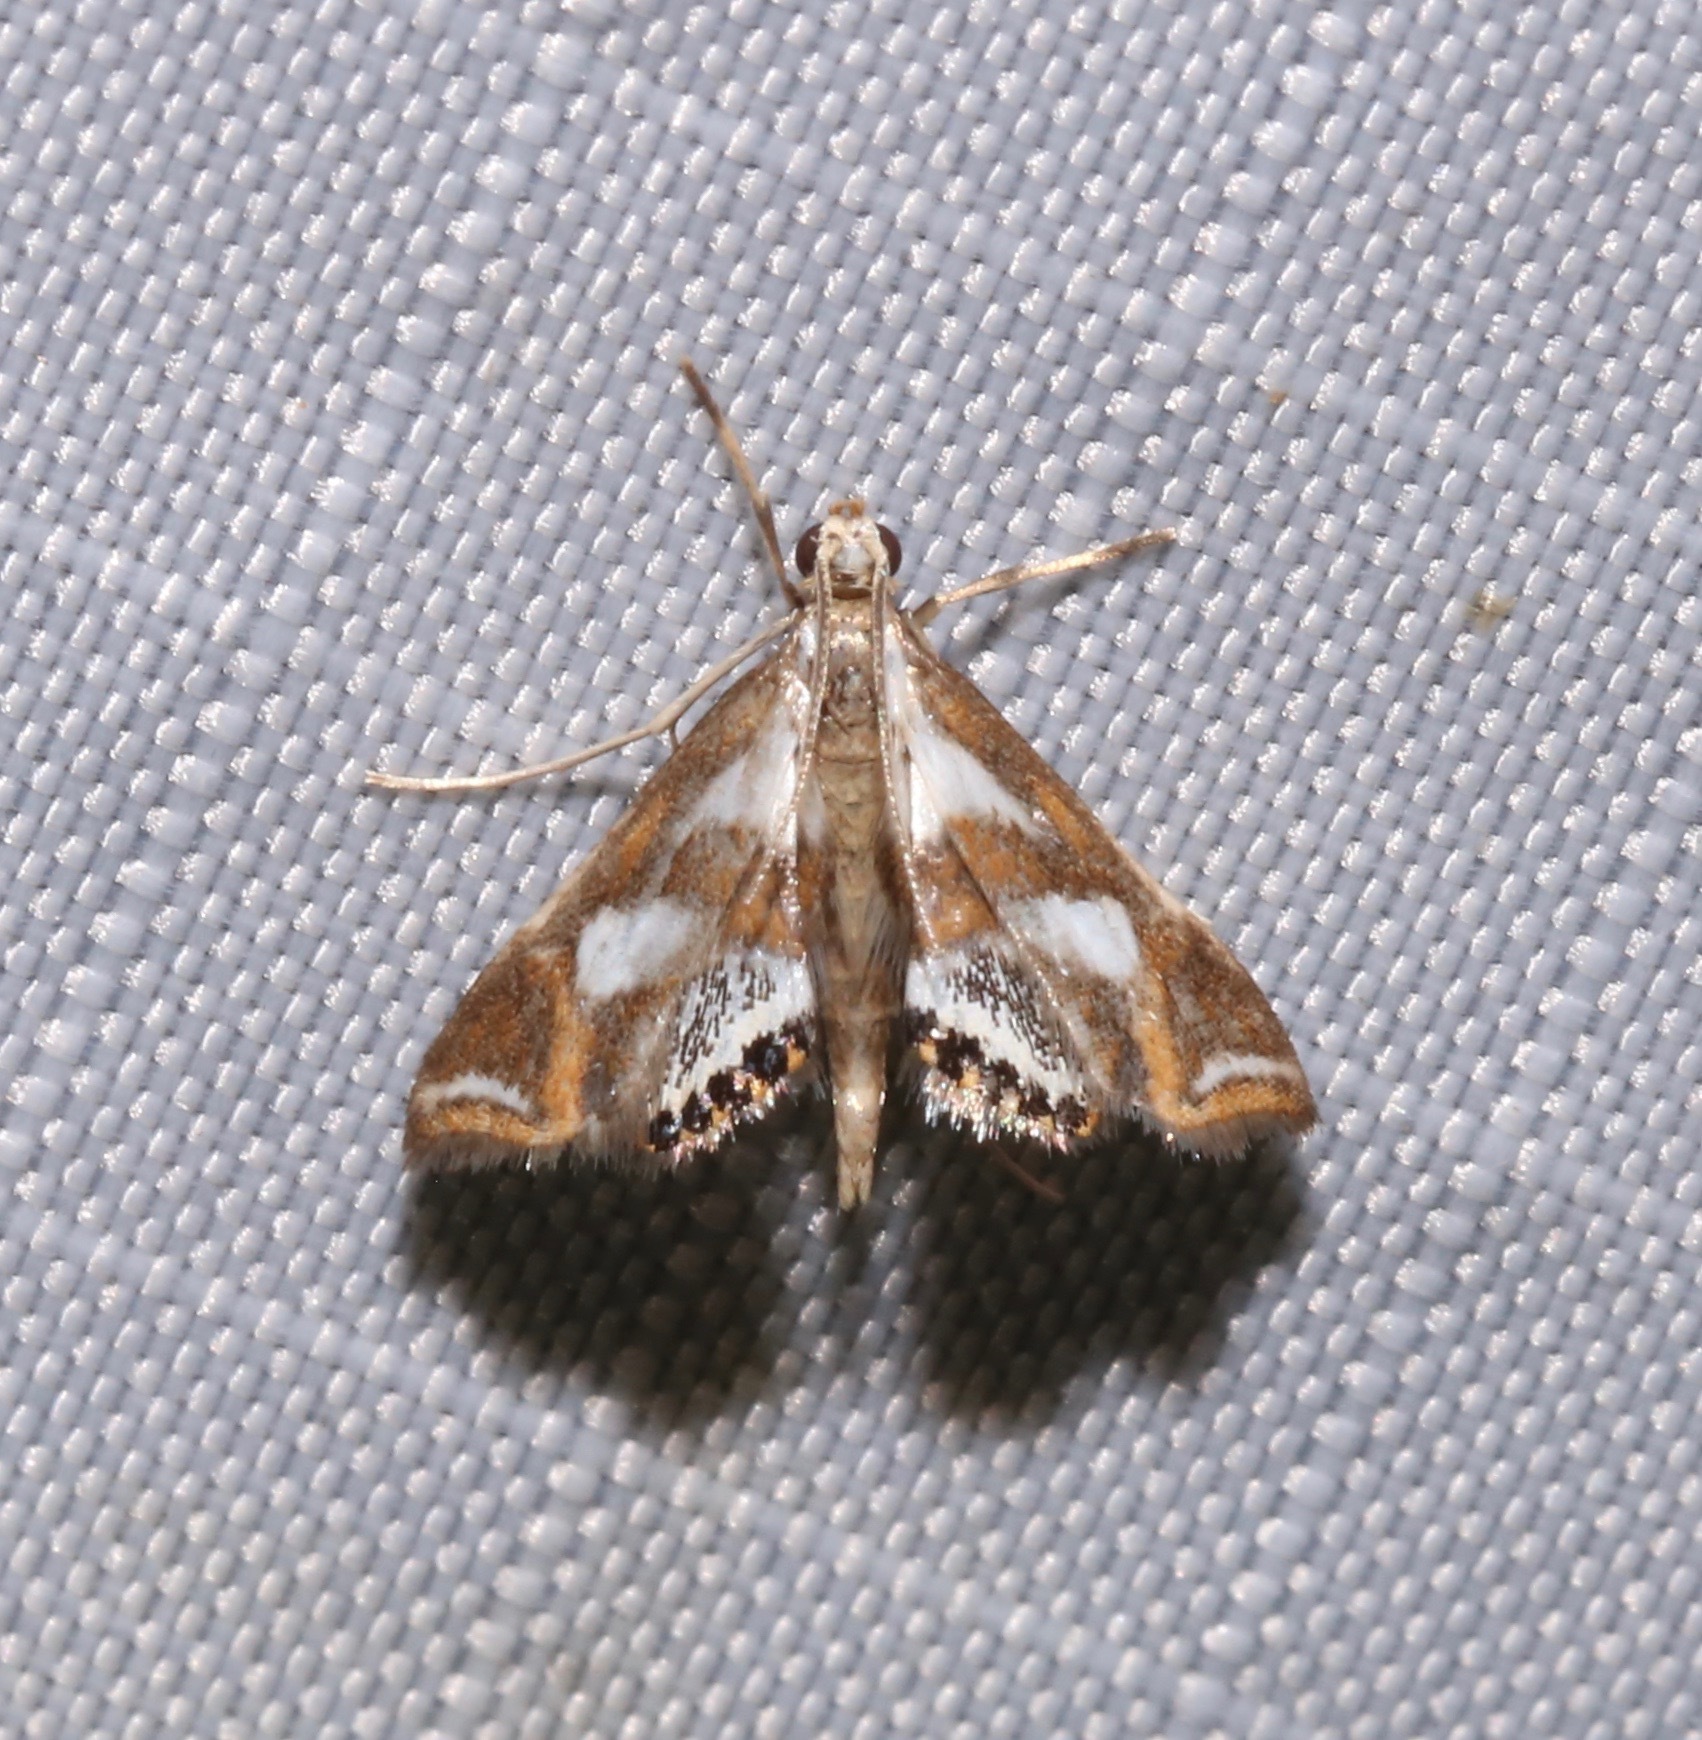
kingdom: Animalia
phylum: Arthropoda
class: Insecta
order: Lepidoptera
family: Crambidae
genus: Chrysendeton
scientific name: Chrysendeton imitabilis
